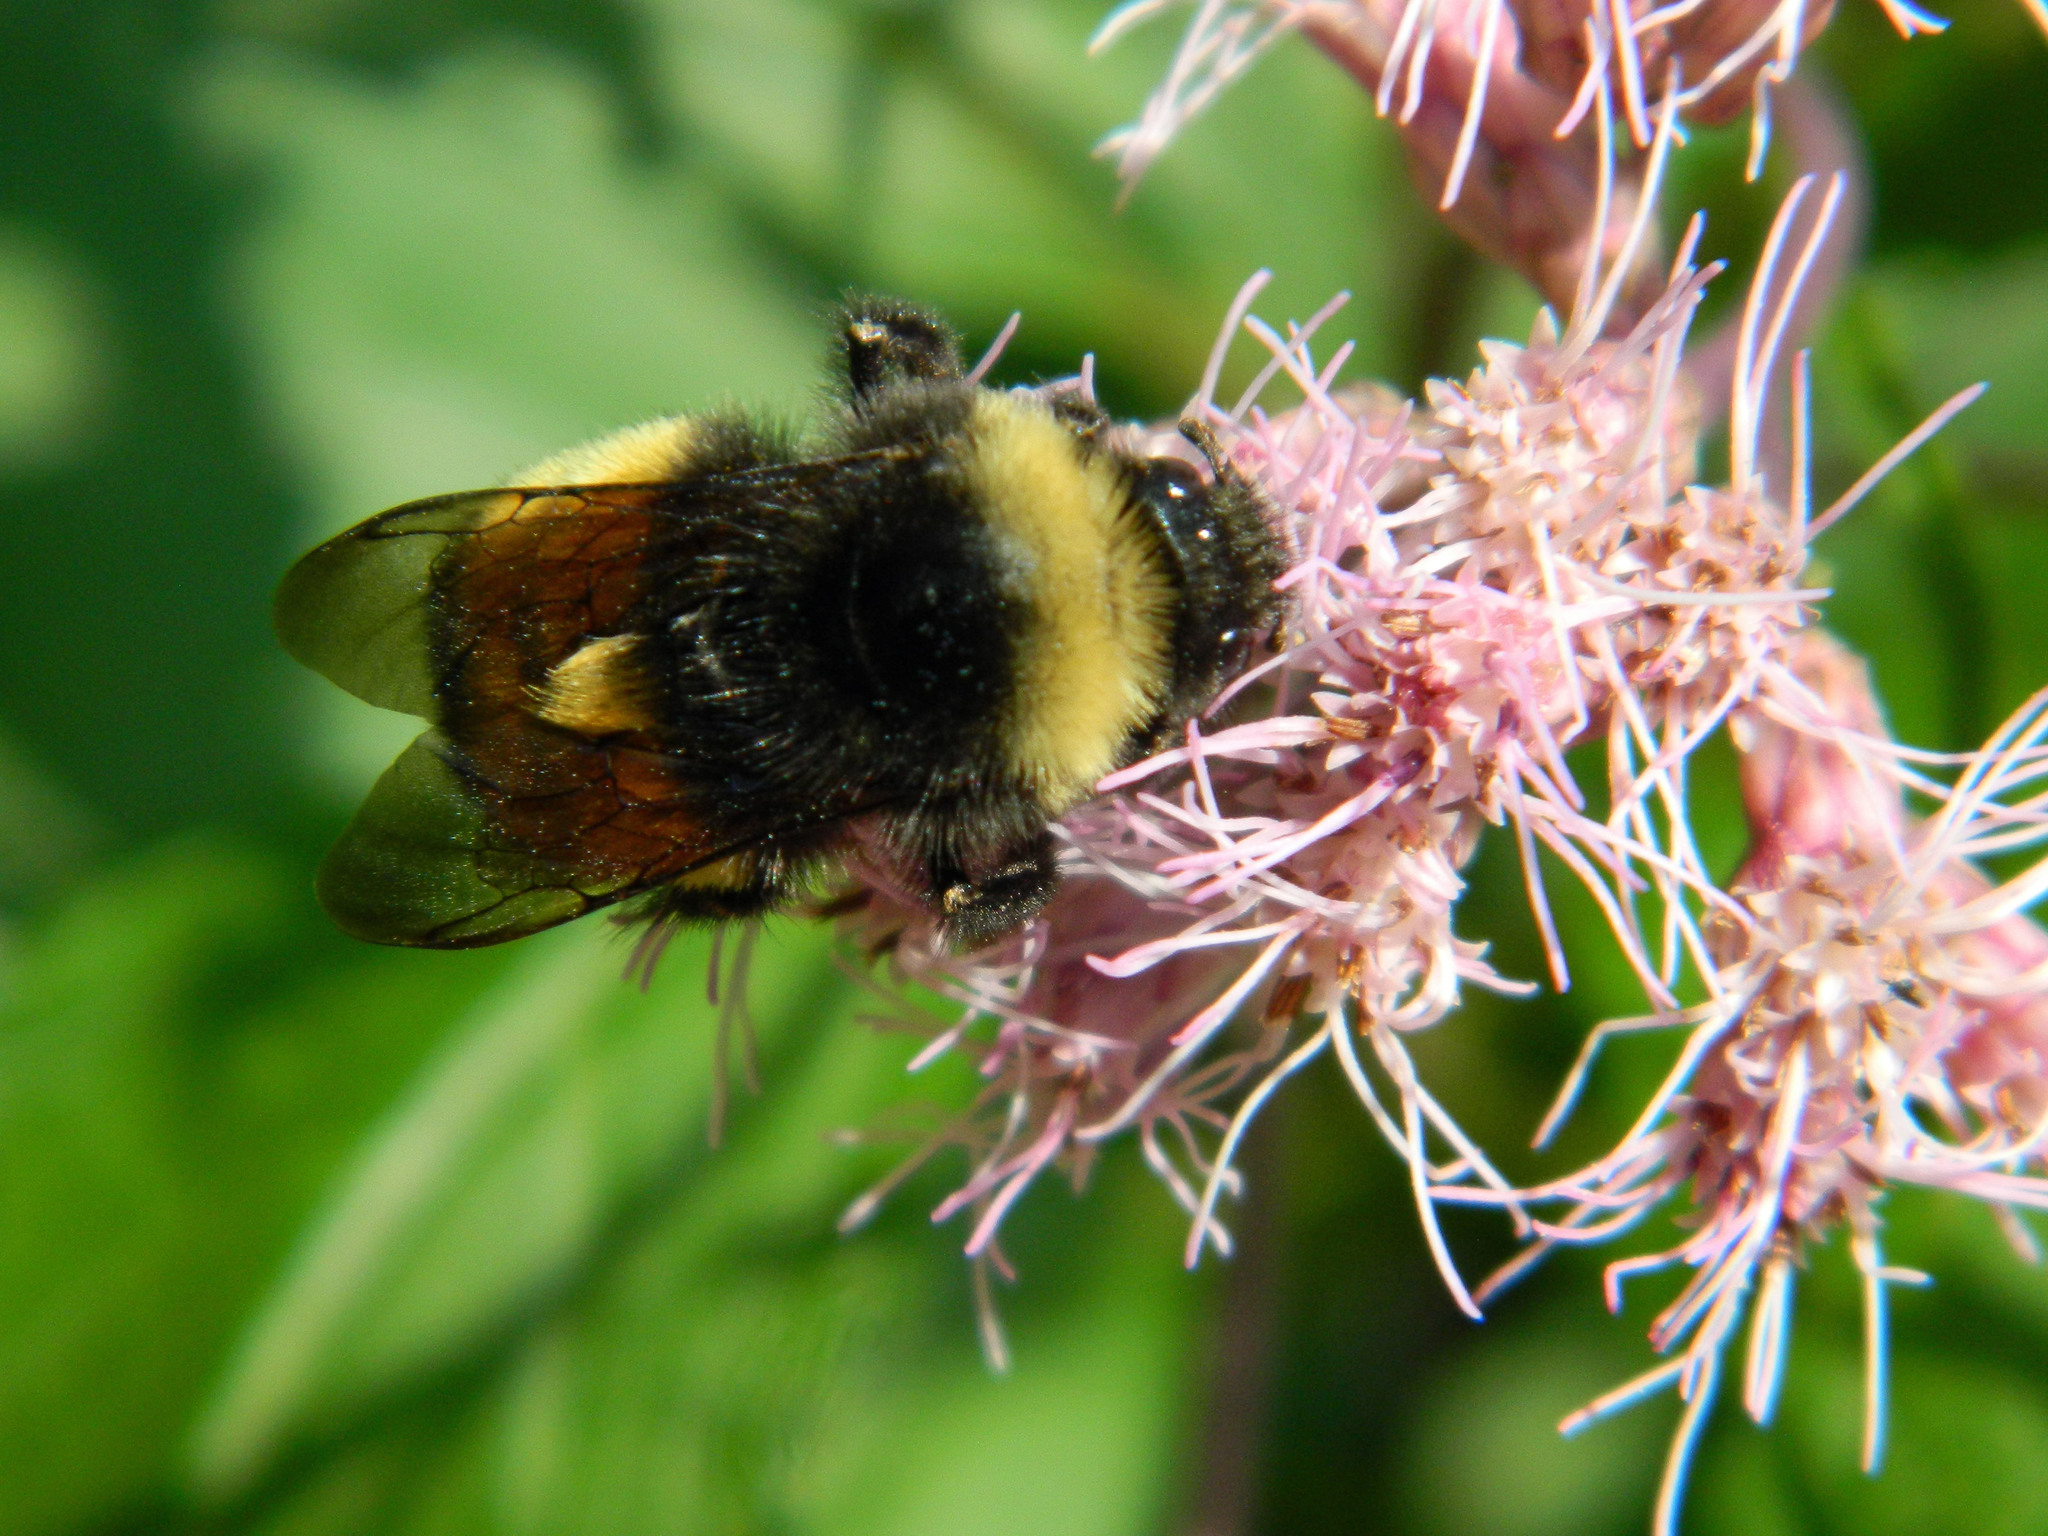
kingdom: Animalia
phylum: Arthropoda
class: Insecta
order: Hymenoptera
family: Apidae
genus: Bombus
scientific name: Bombus terricola
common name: Yellow-banded bumble bee
